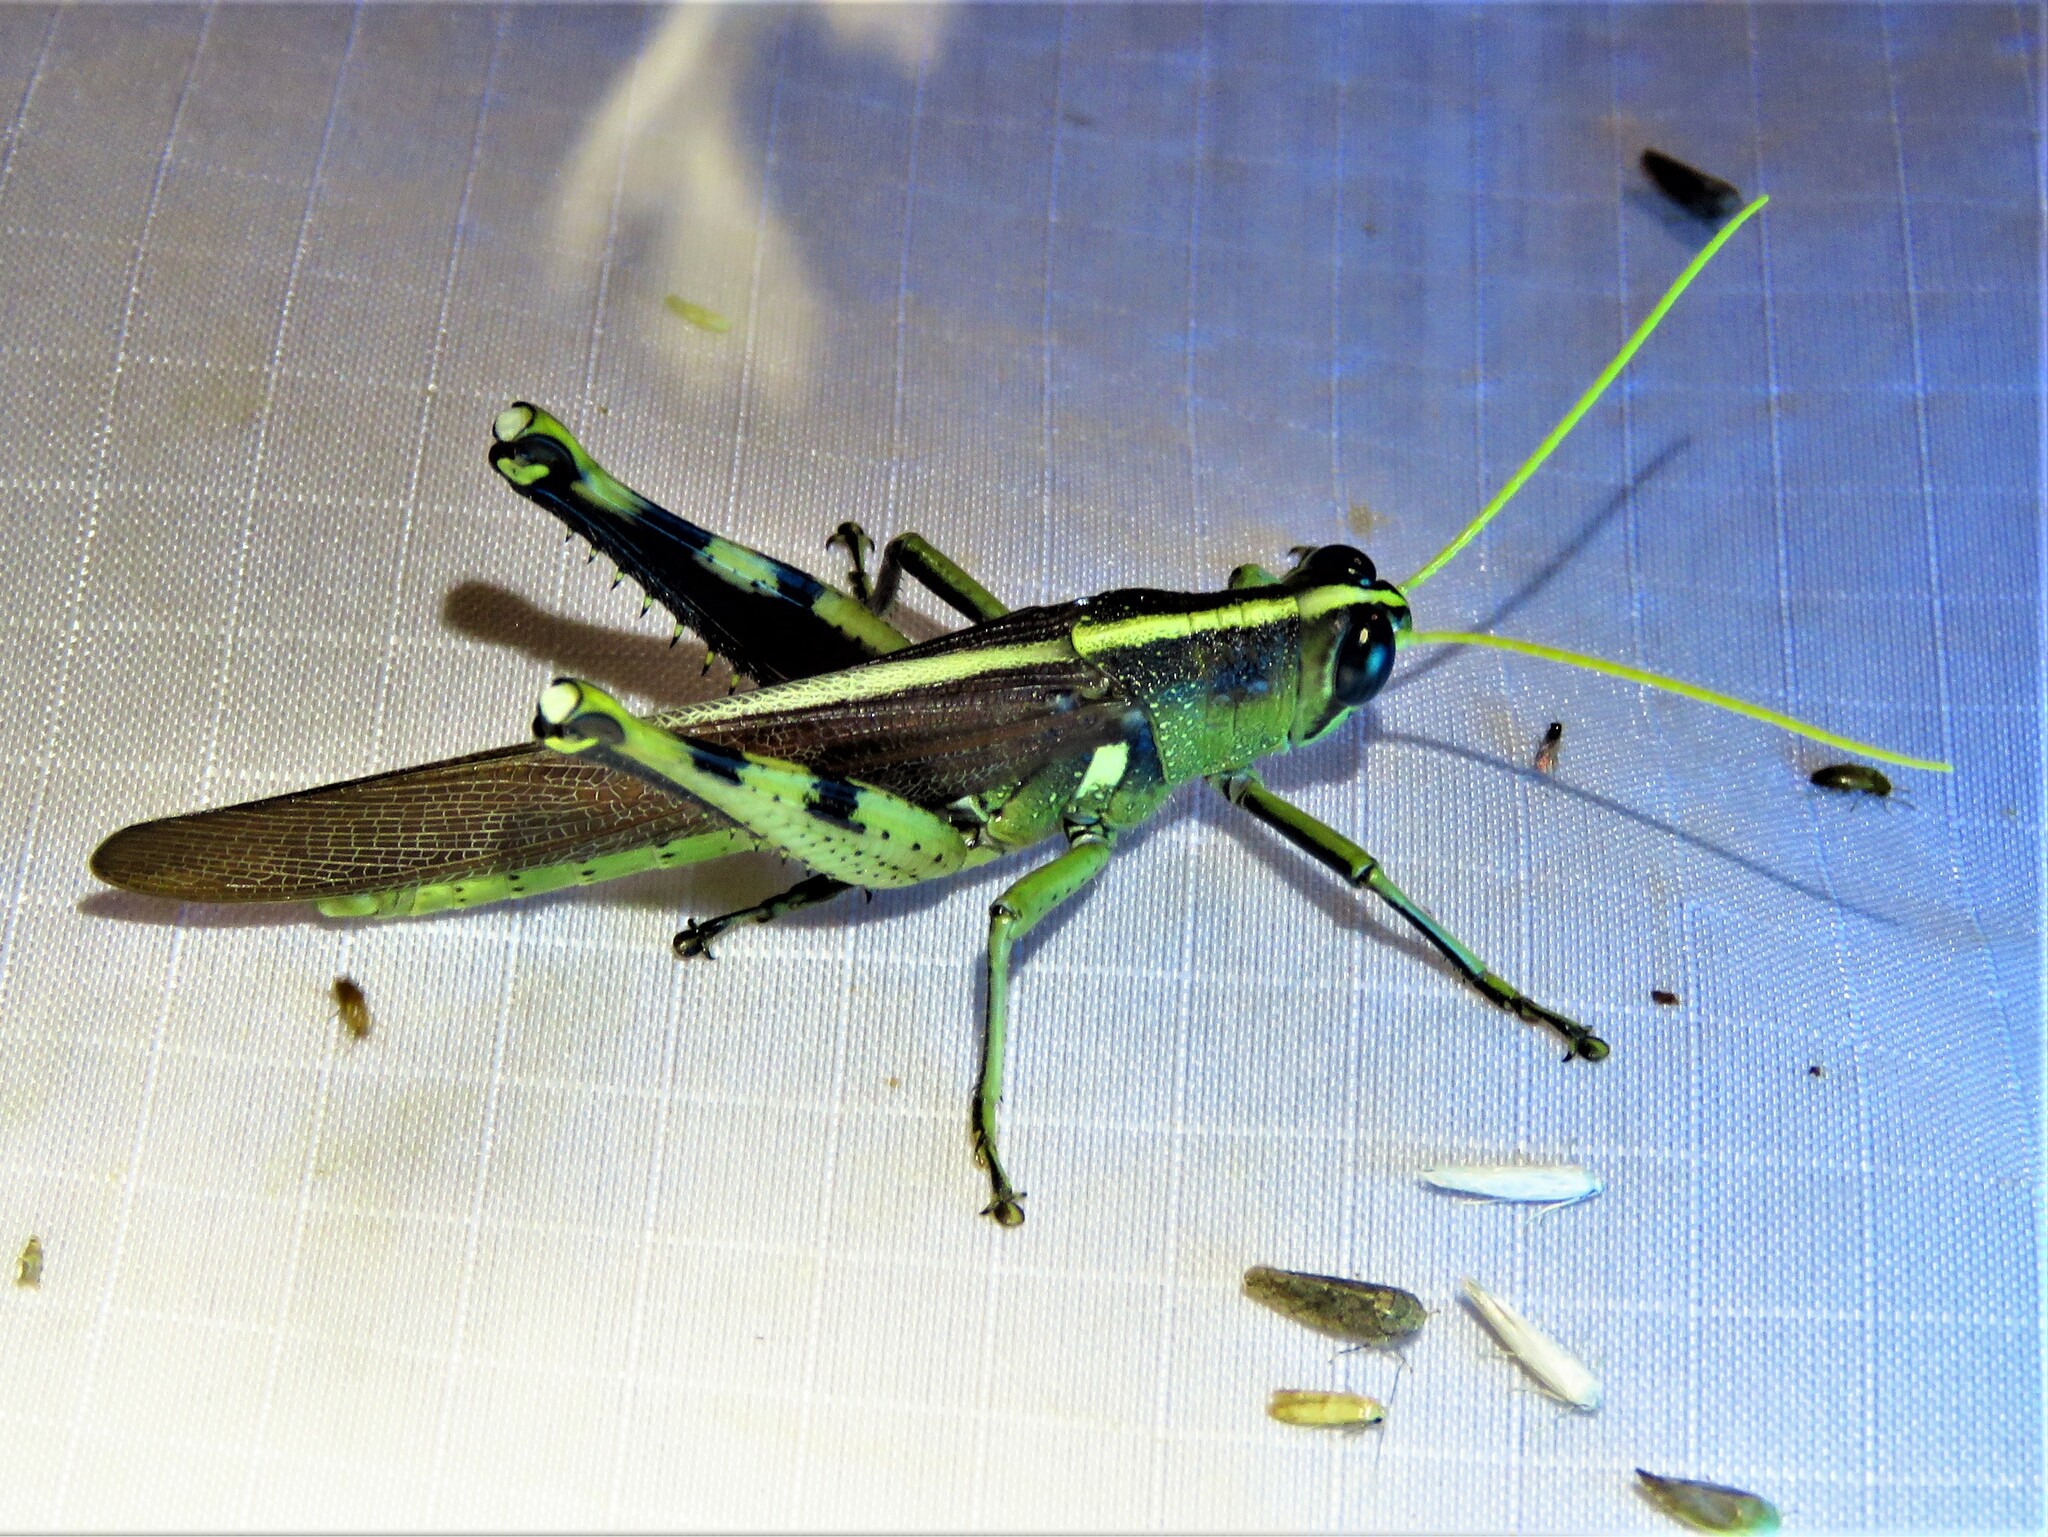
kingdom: Animalia
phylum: Arthropoda
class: Insecta
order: Orthoptera
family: Acrididae
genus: Schistocerca
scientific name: Schistocerca obscura
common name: Obscure bird grasshopper
